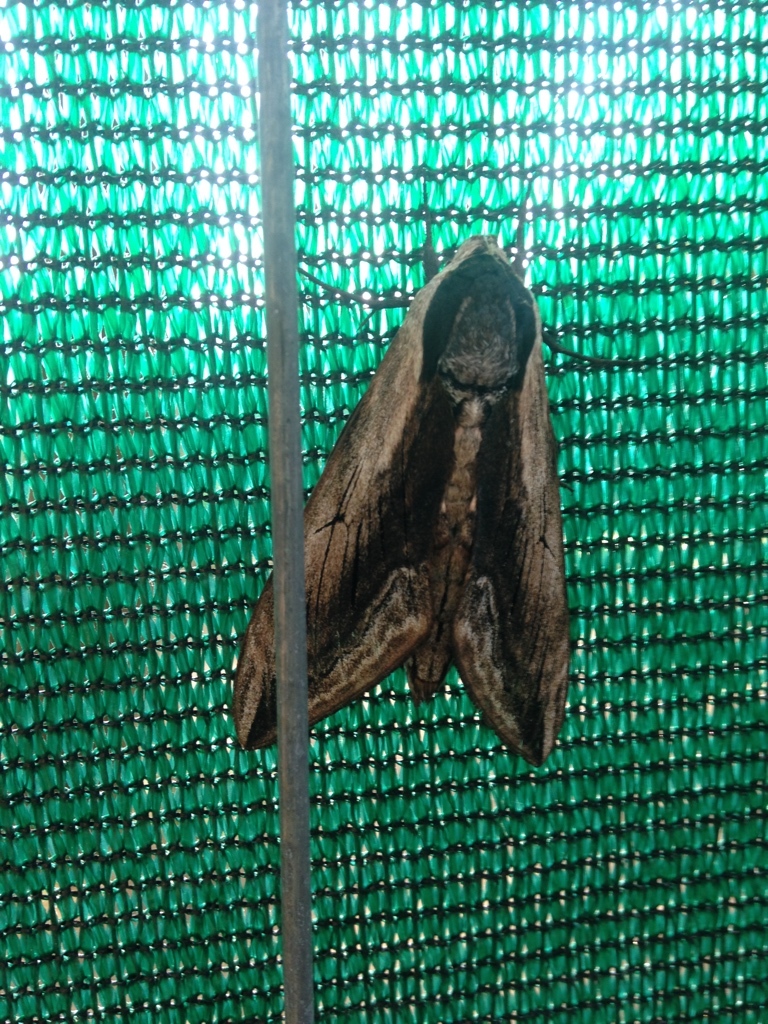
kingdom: Animalia
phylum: Arthropoda
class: Insecta
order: Lepidoptera
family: Sphingidae
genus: Sphinx
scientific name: Sphinx ligustri
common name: Privet hawk-moth
